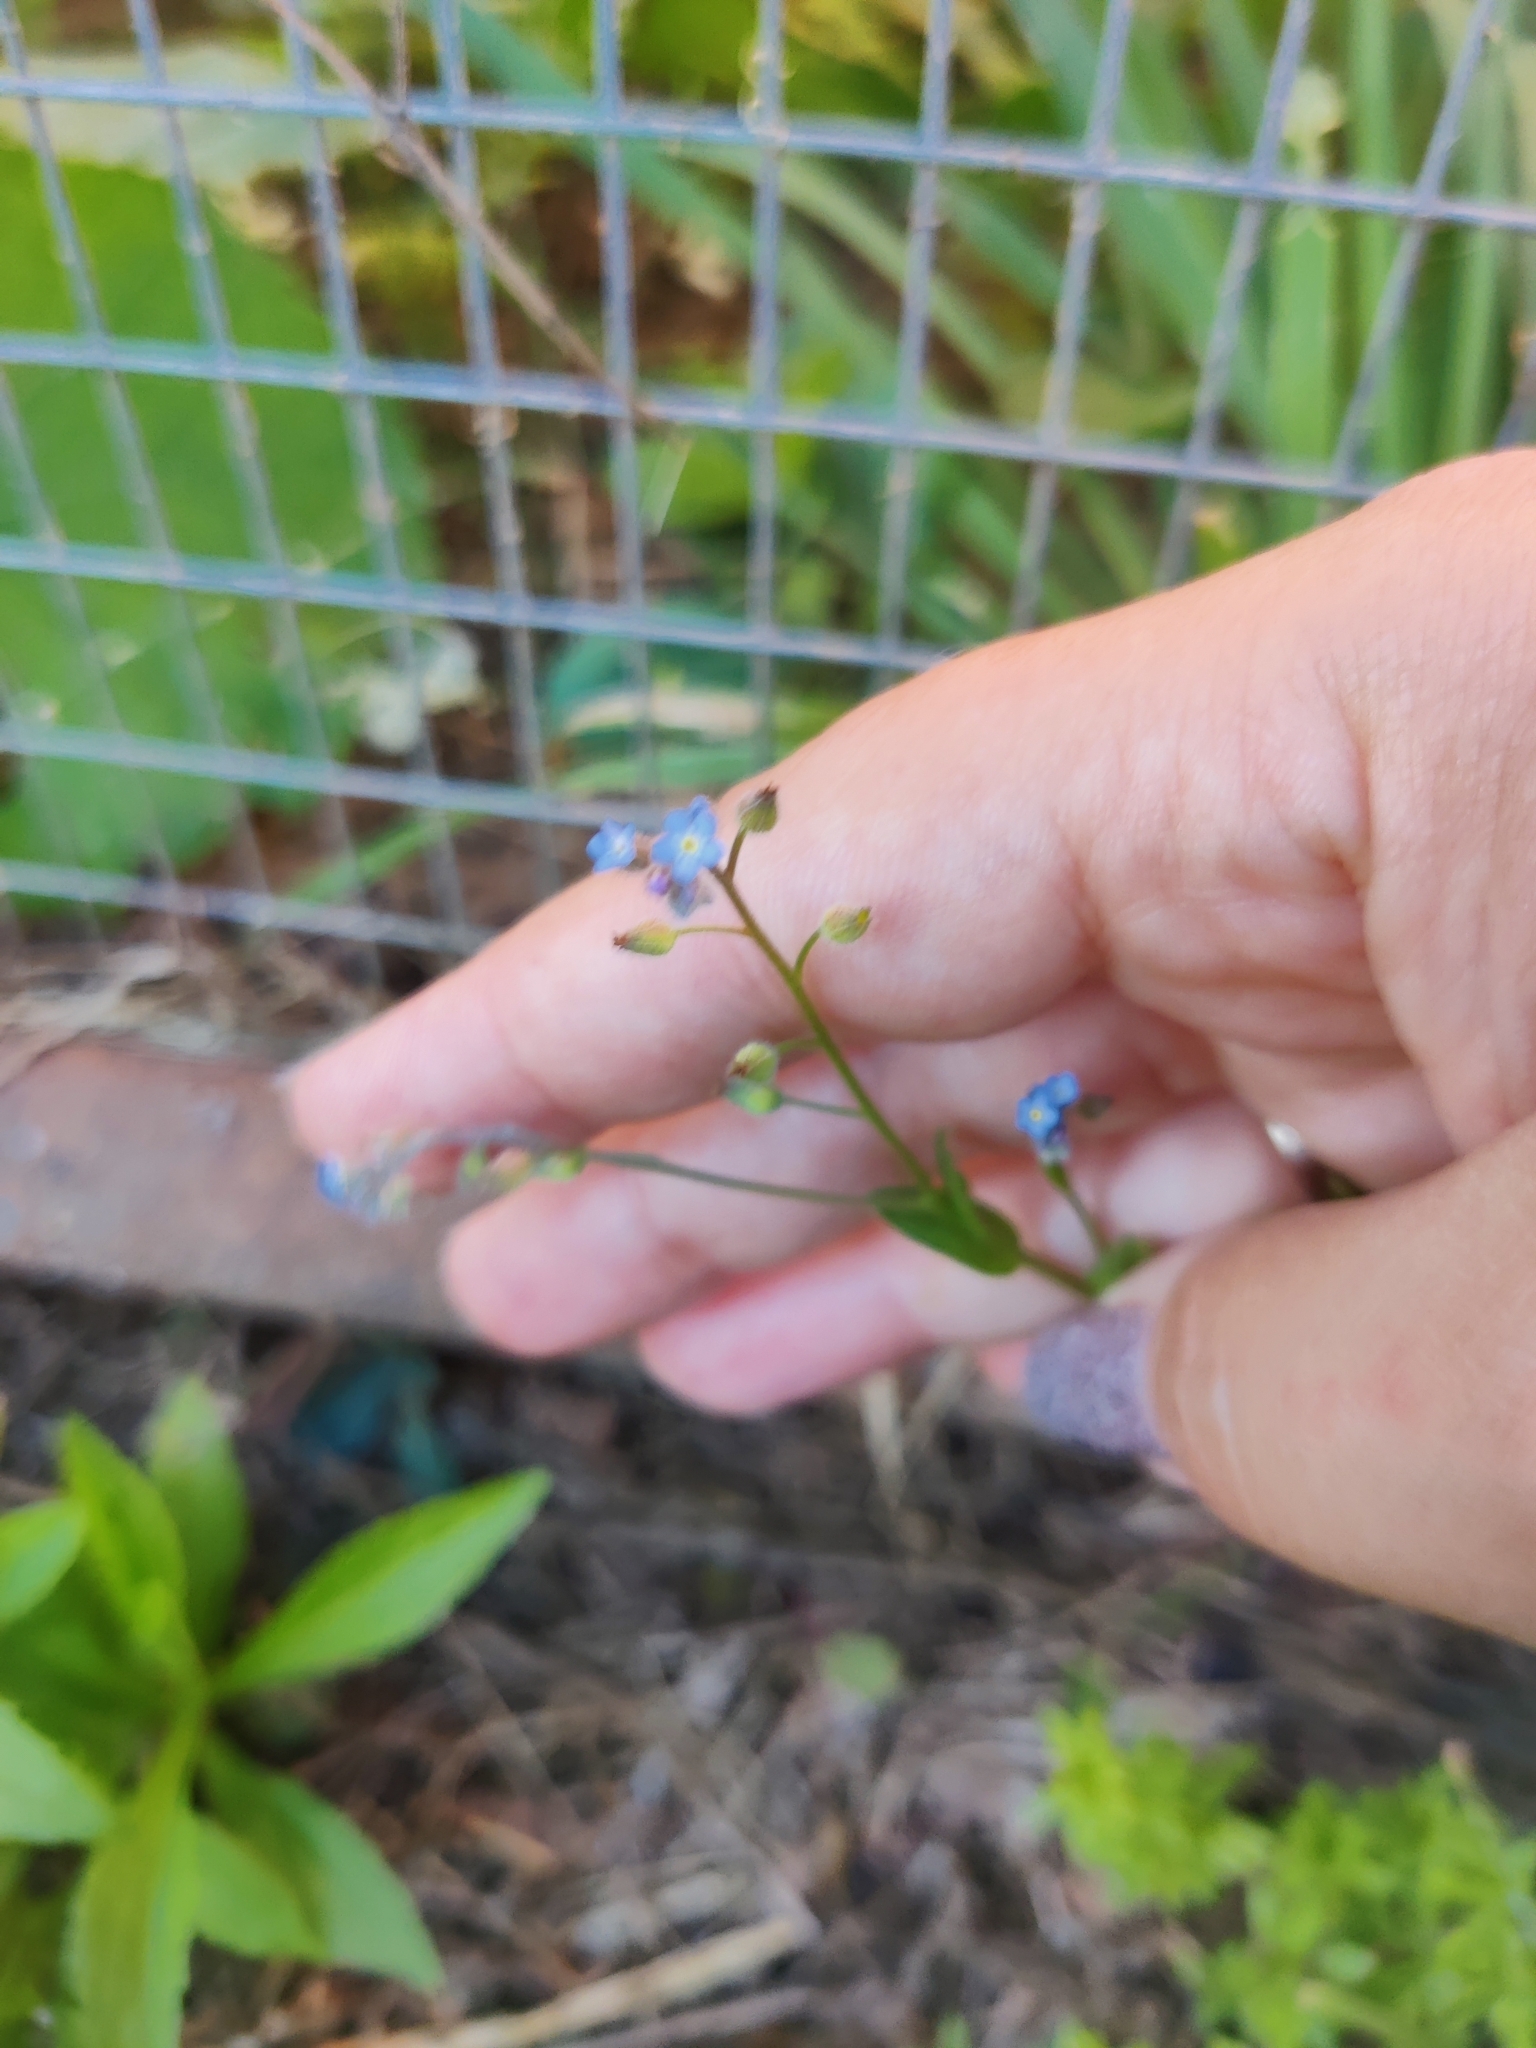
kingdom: Plantae
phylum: Tracheophyta
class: Magnoliopsida
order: Boraginales
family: Boraginaceae
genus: Myosotis
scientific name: Myosotis arvensis
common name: Field forget-me-not
